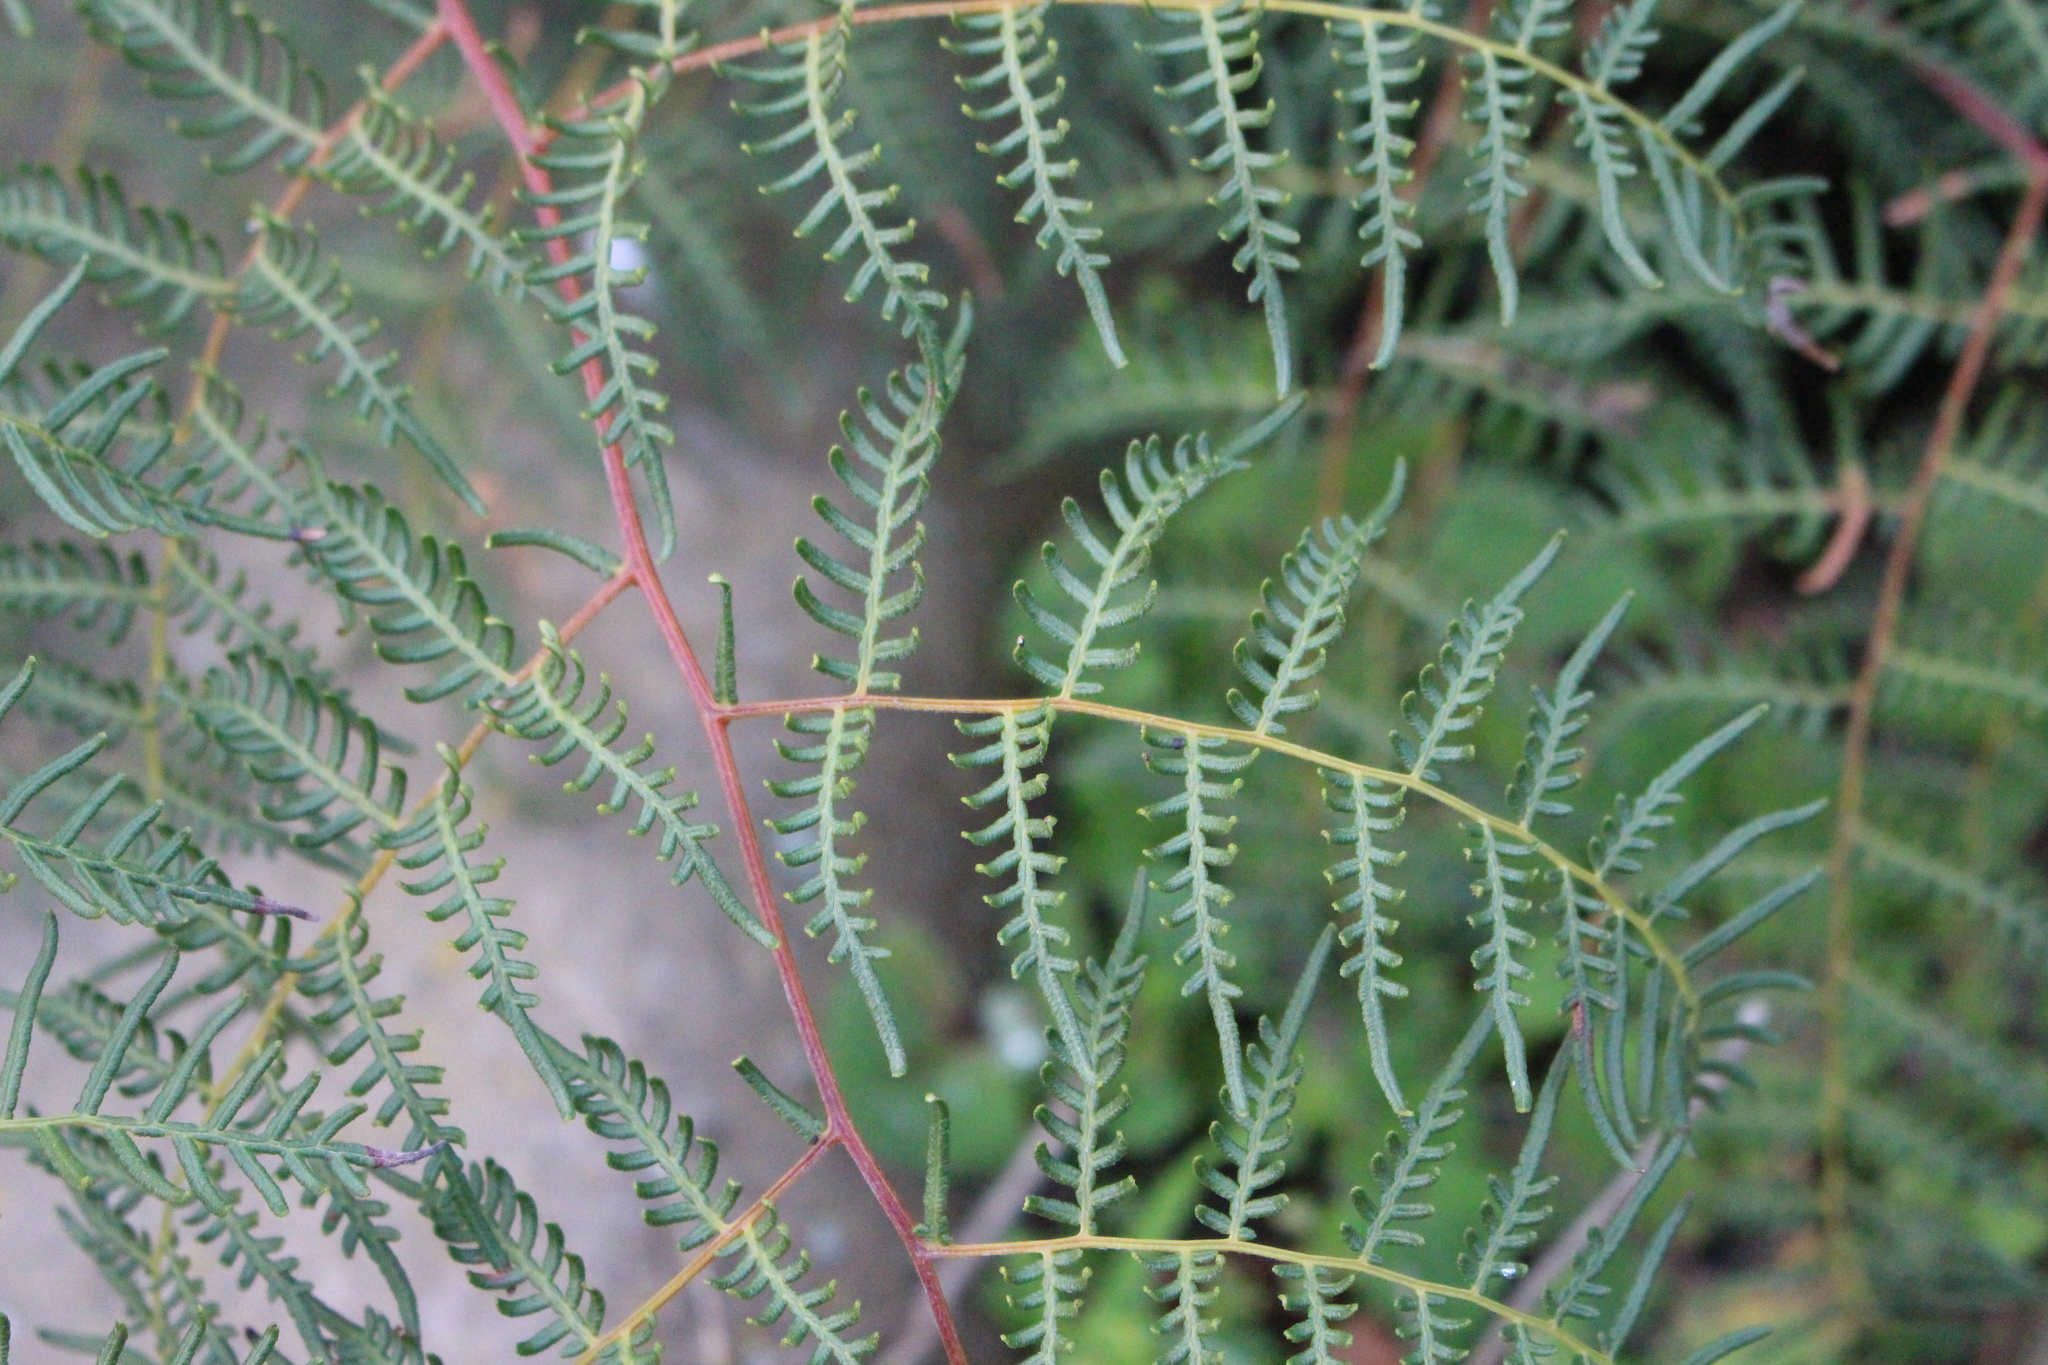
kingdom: Plantae
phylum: Tracheophyta
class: Polypodiopsida
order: Polypodiales
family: Dennstaedtiaceae
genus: Pteridium
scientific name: Pteridium esculentum
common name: Bracken fern
